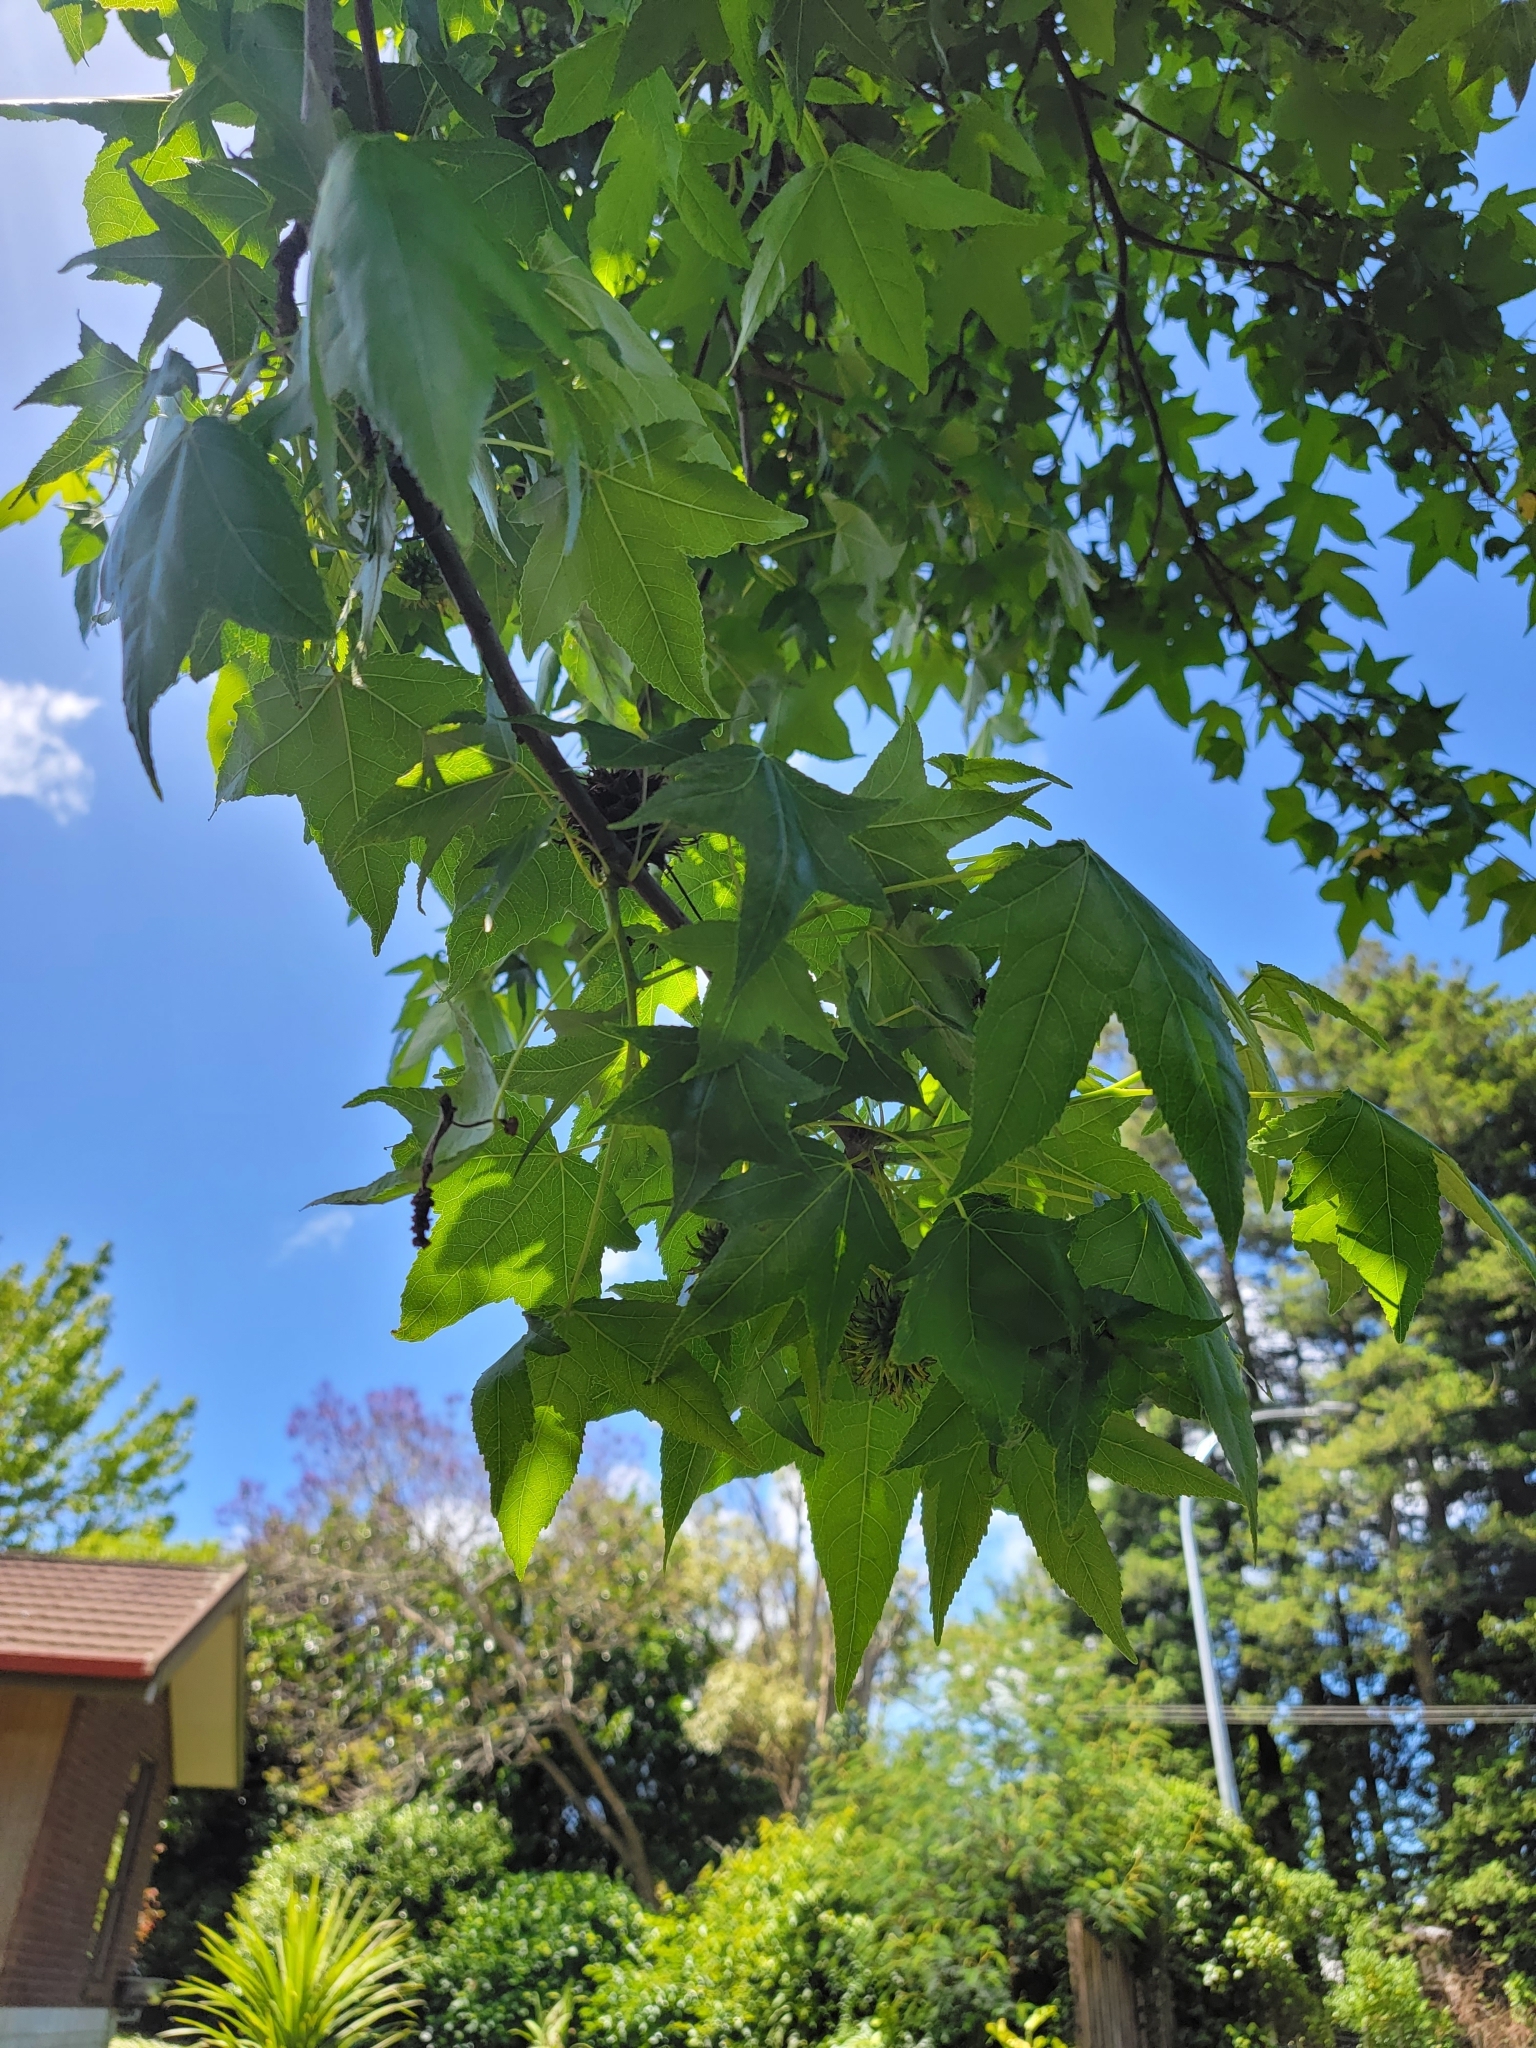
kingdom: Plantae
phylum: Tracheophyta
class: Magnoliopsida
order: Saxifragales
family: Altingiaceae
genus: Liquidambar
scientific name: Liquidambar styraciflua
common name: Sweet gum
